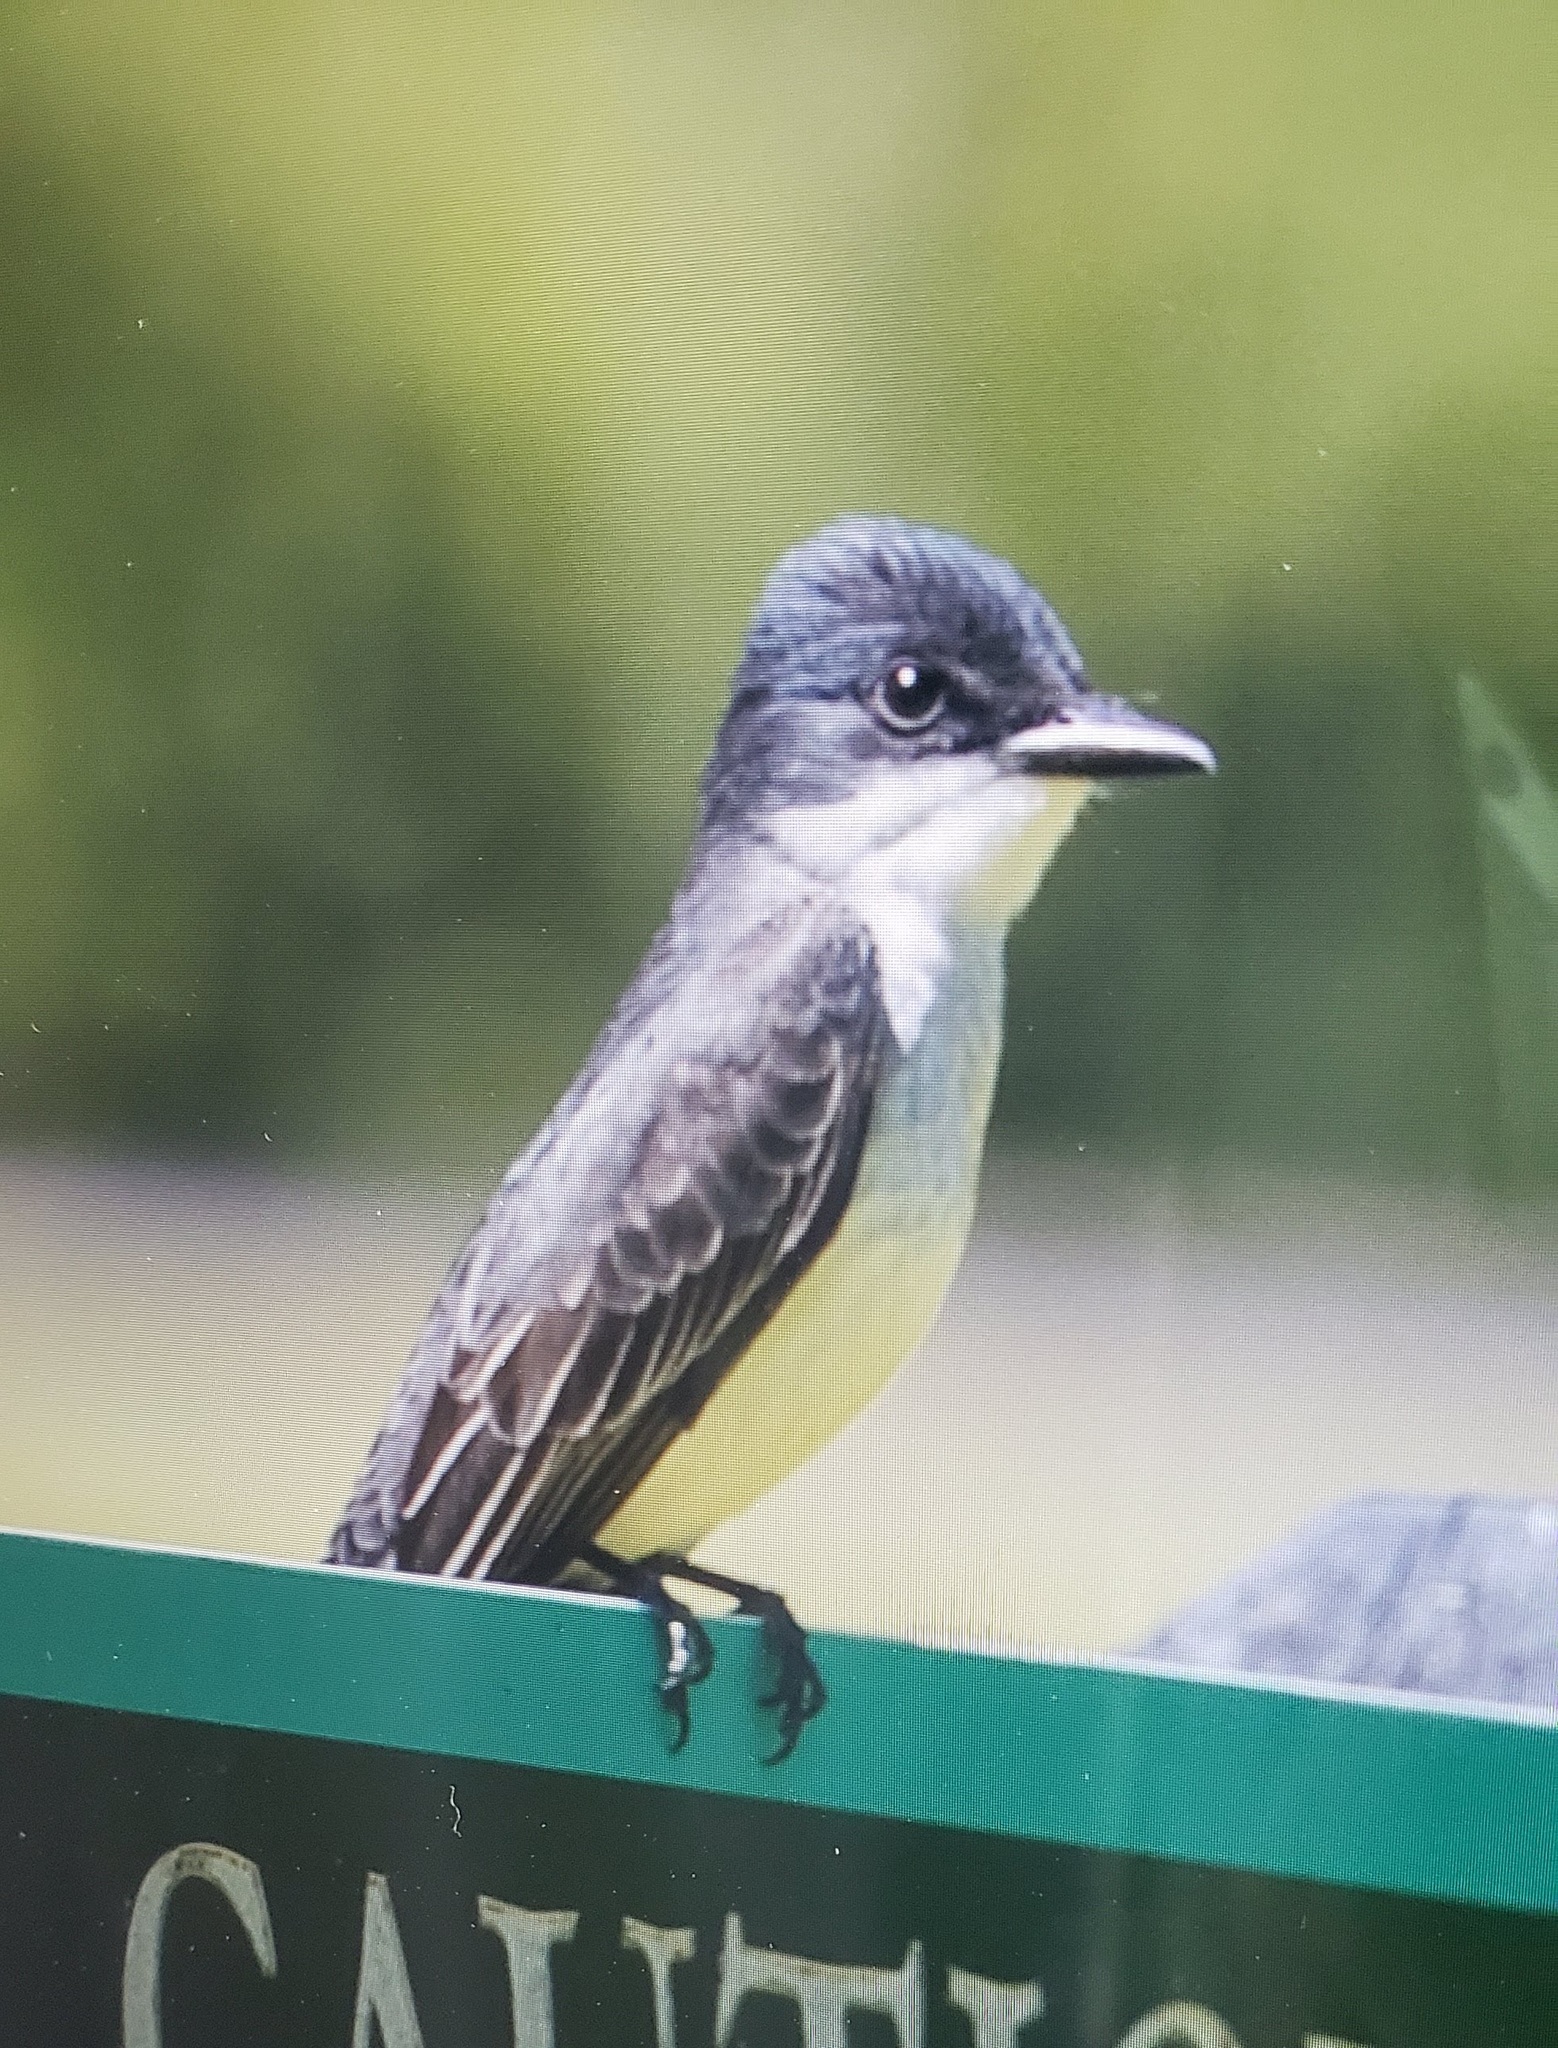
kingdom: Animalia
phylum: Chordata
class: Aves
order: Passeriformes
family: Tyrannidae
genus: Tyrannus
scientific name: Tyrannus tyrannus
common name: Eastern kingbird
